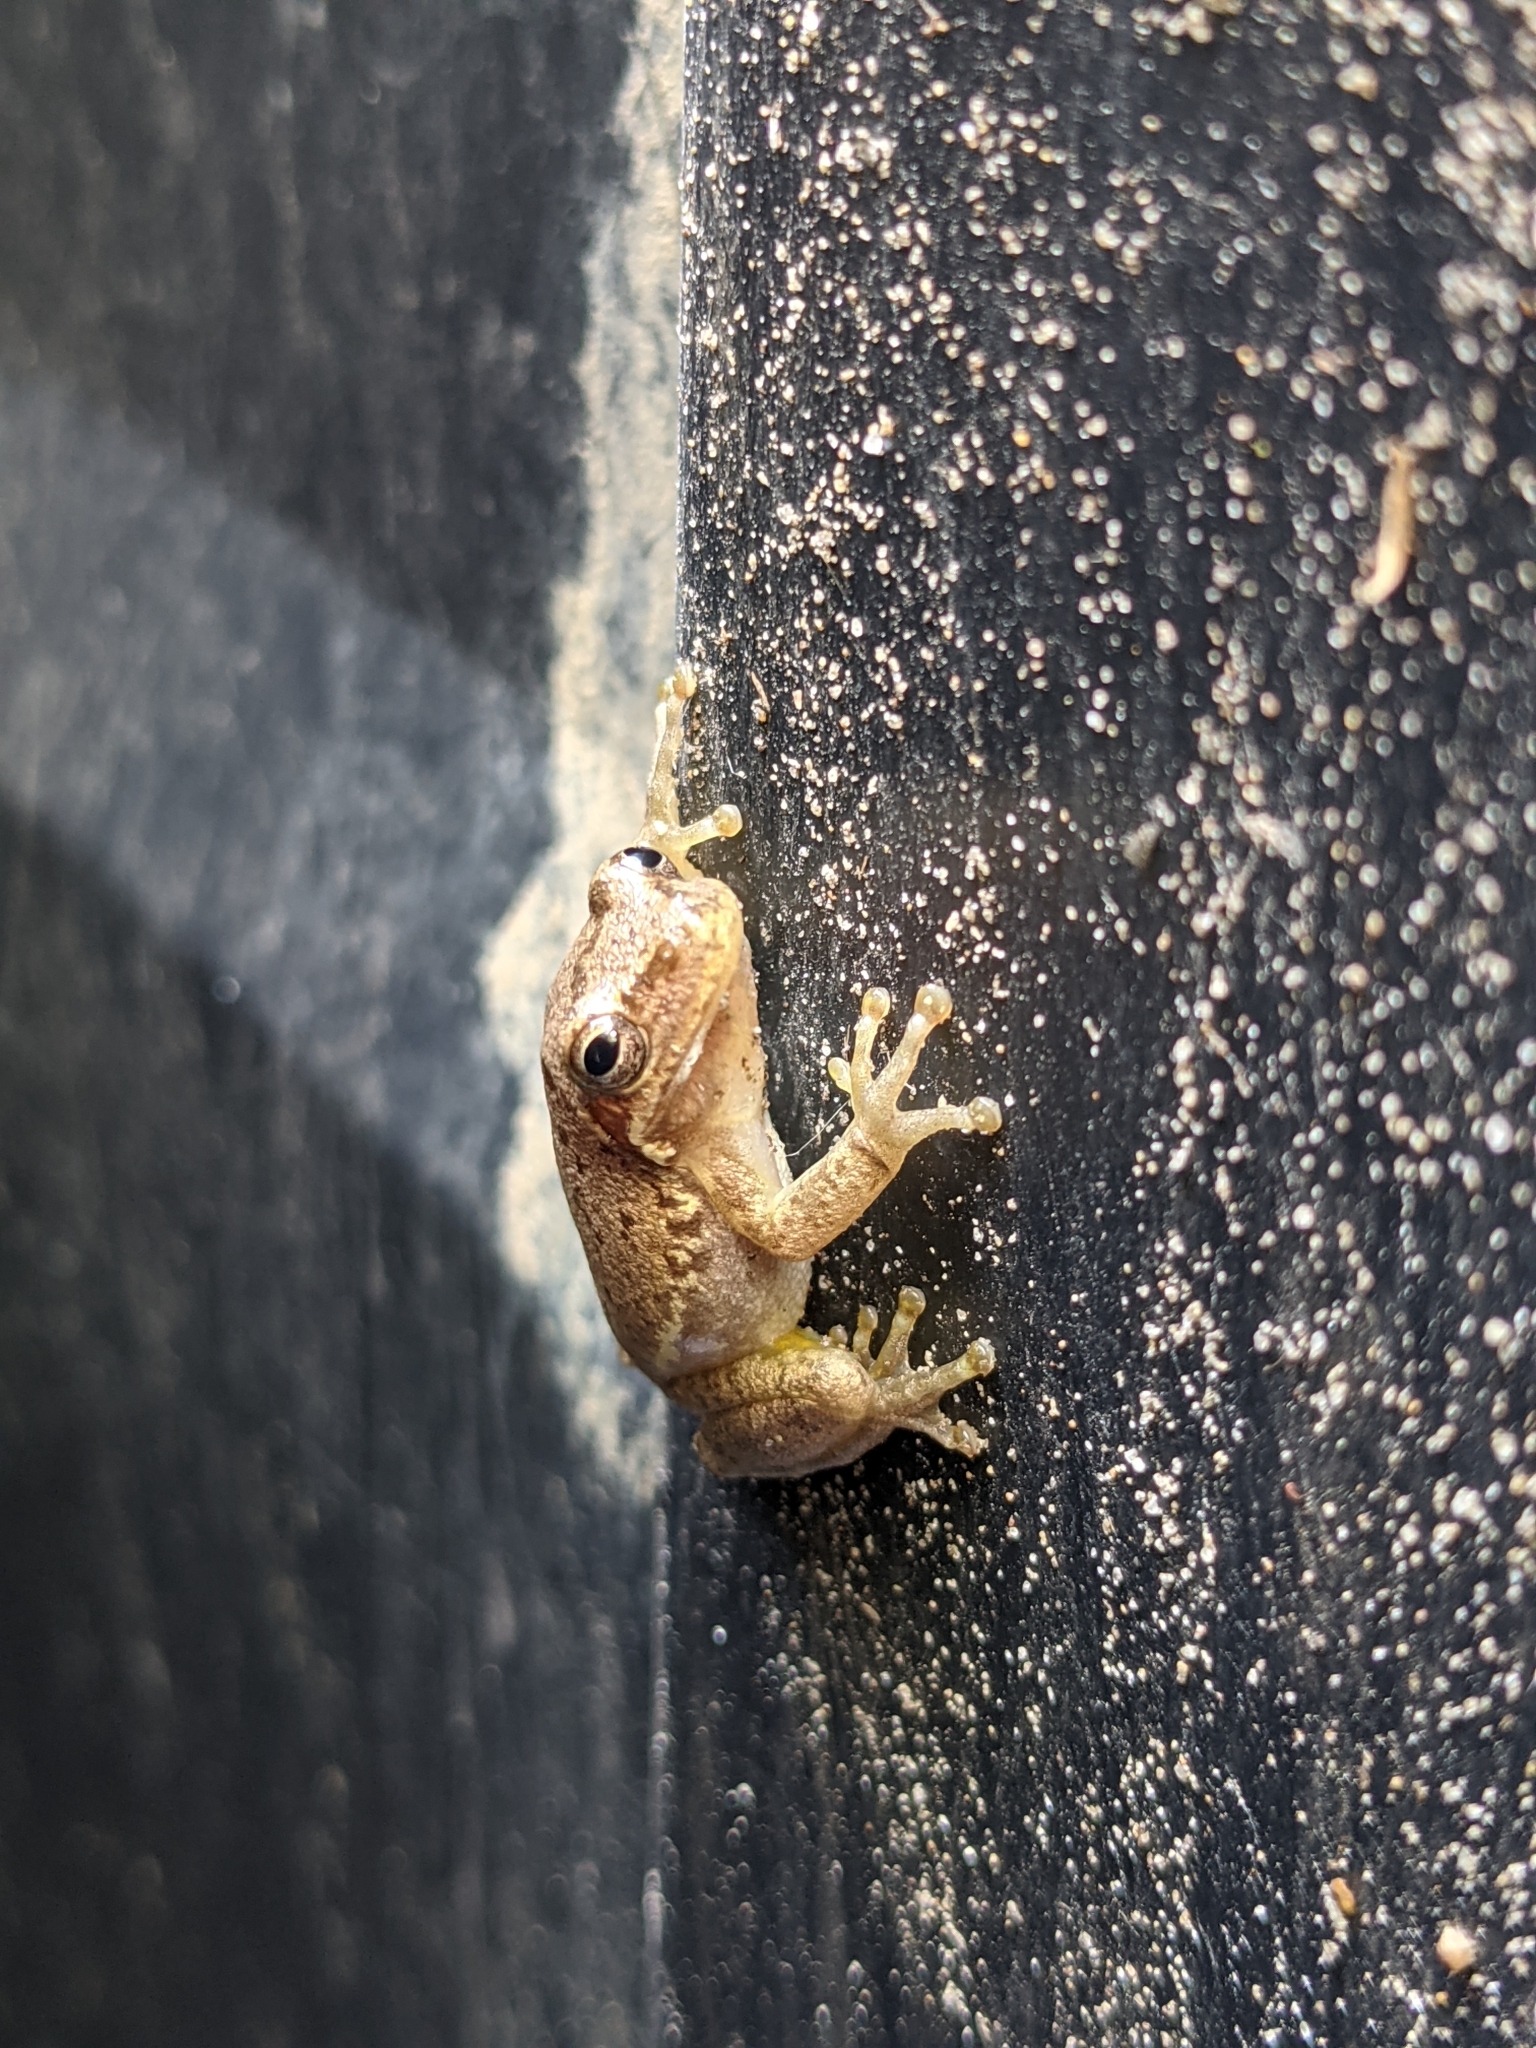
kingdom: Animalia
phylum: Chordata
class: Amphibia
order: Anura
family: Hylidae
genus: Dryophytes
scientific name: Dryophytes squirellus
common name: Squirrel treefrog
